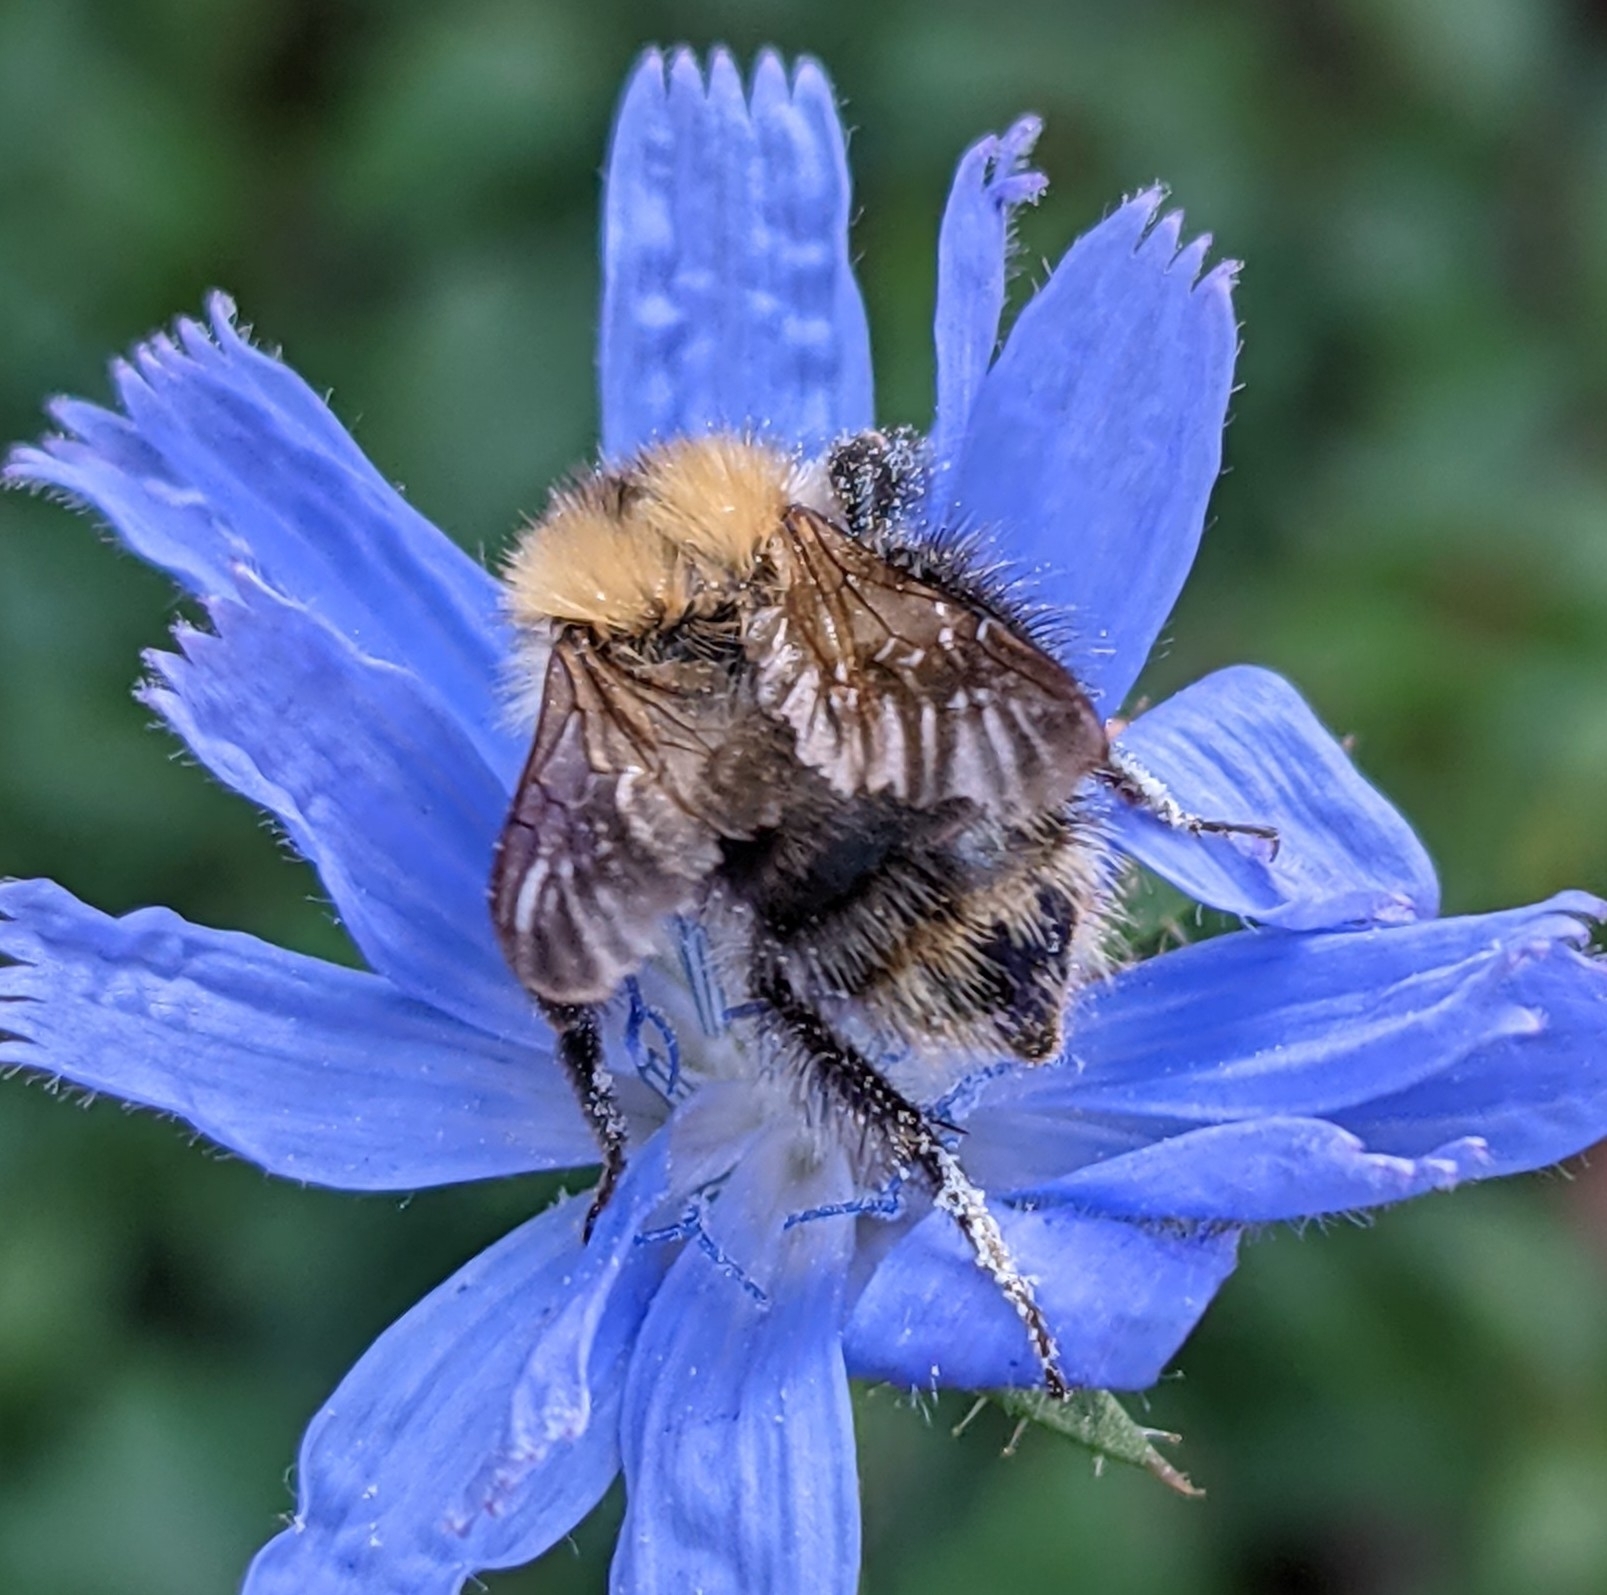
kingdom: Animalia
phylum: Arthropoda
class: Insecta
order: Hymenoptera
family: Apidae
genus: Bombus
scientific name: Bombus pascuorum
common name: Common carder bee
